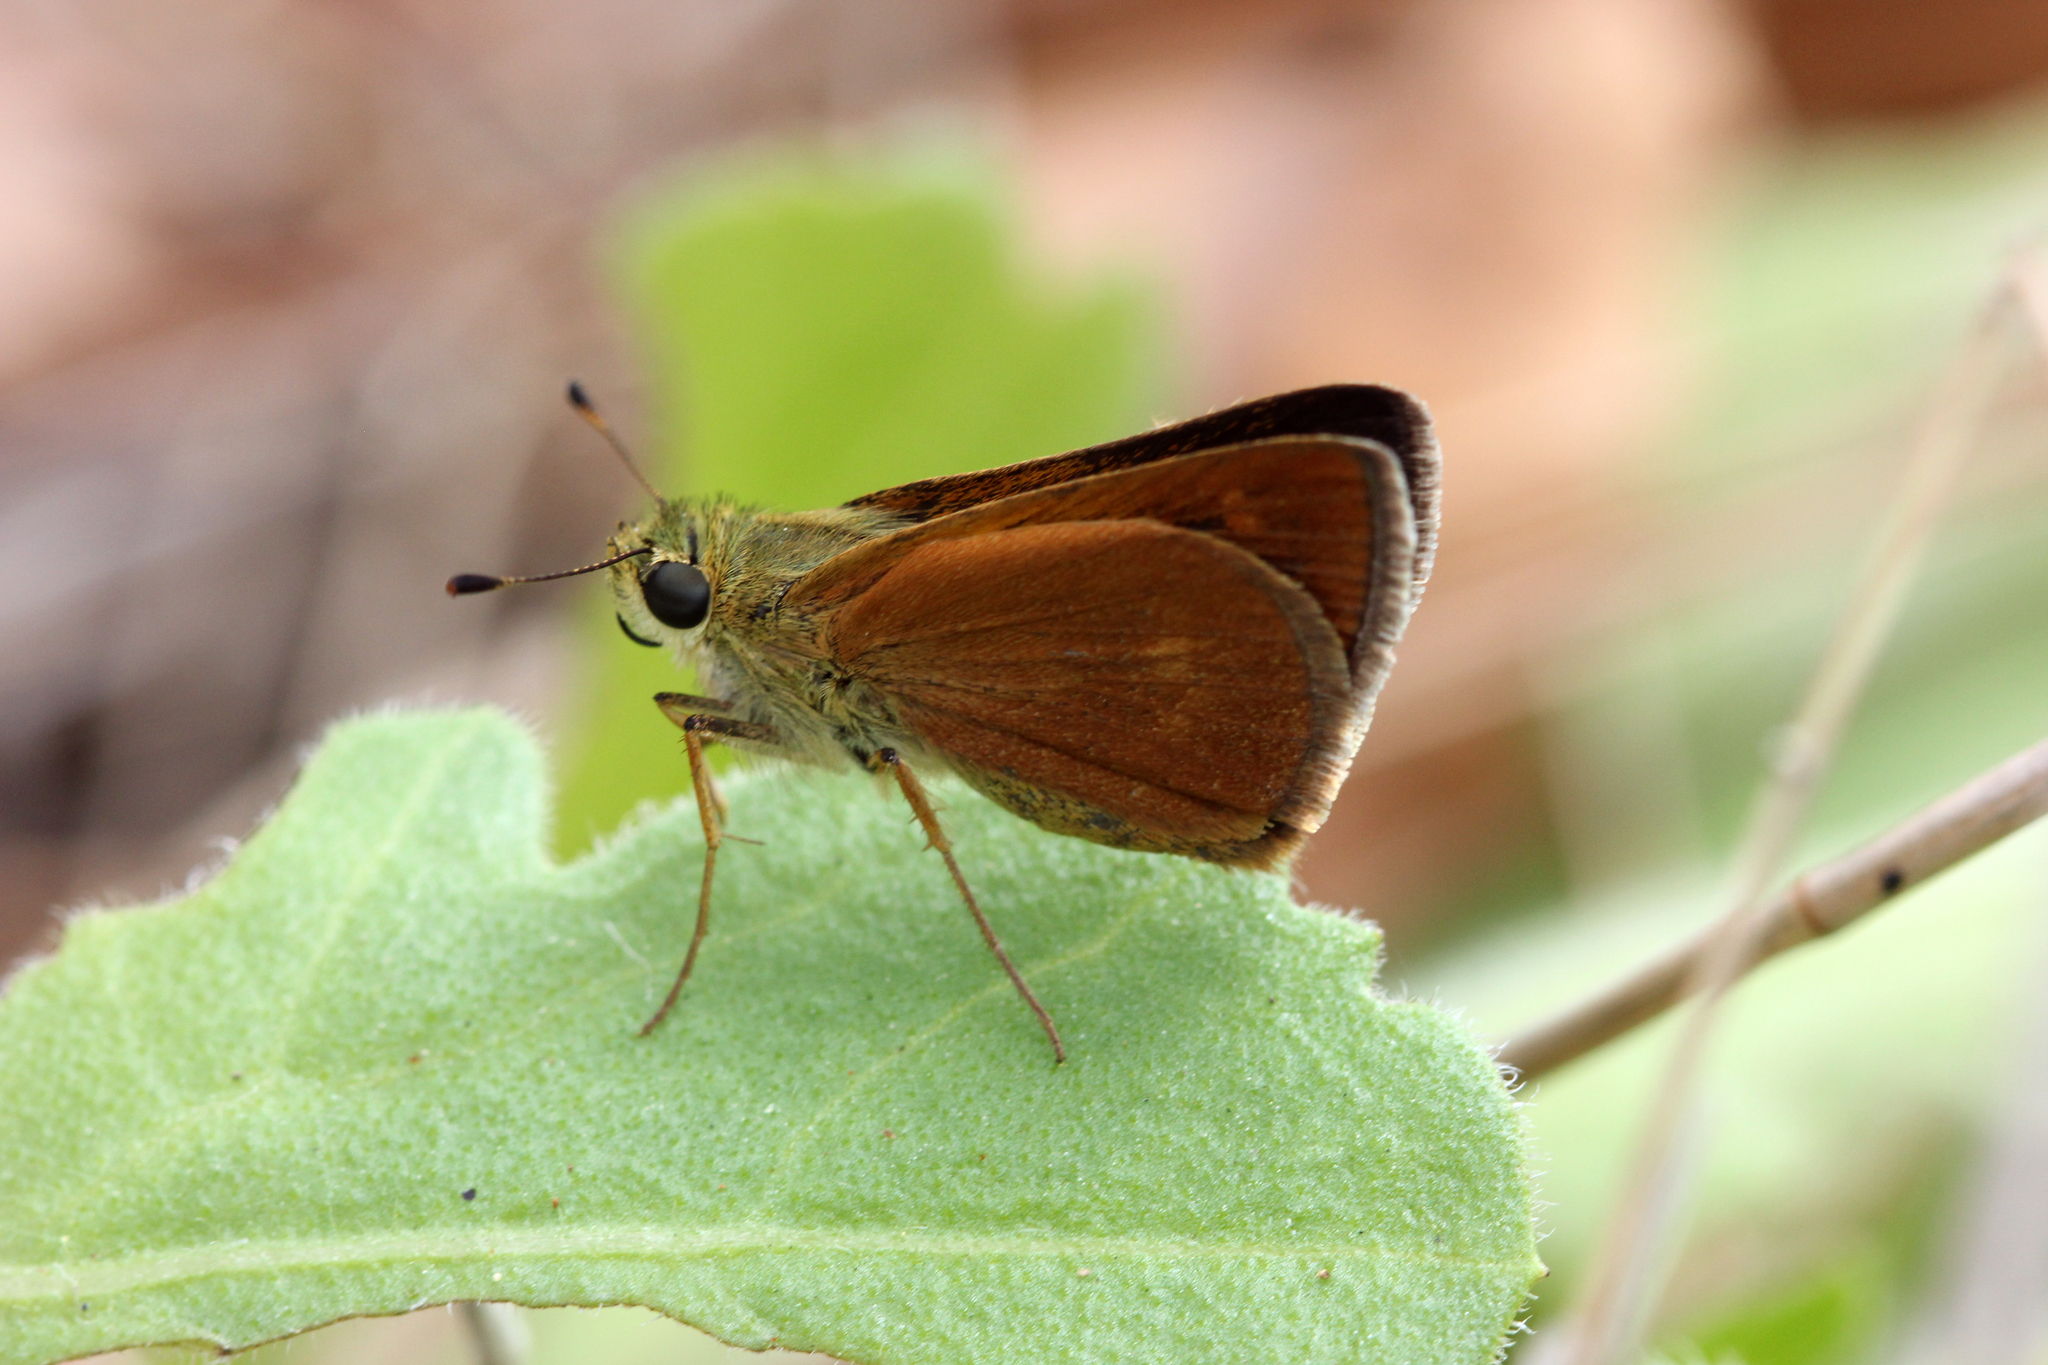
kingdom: Animalia
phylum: Arthropoda
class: Insecta
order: Lepidoptera
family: Hesperiidae
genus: Polites
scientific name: Polites otho
